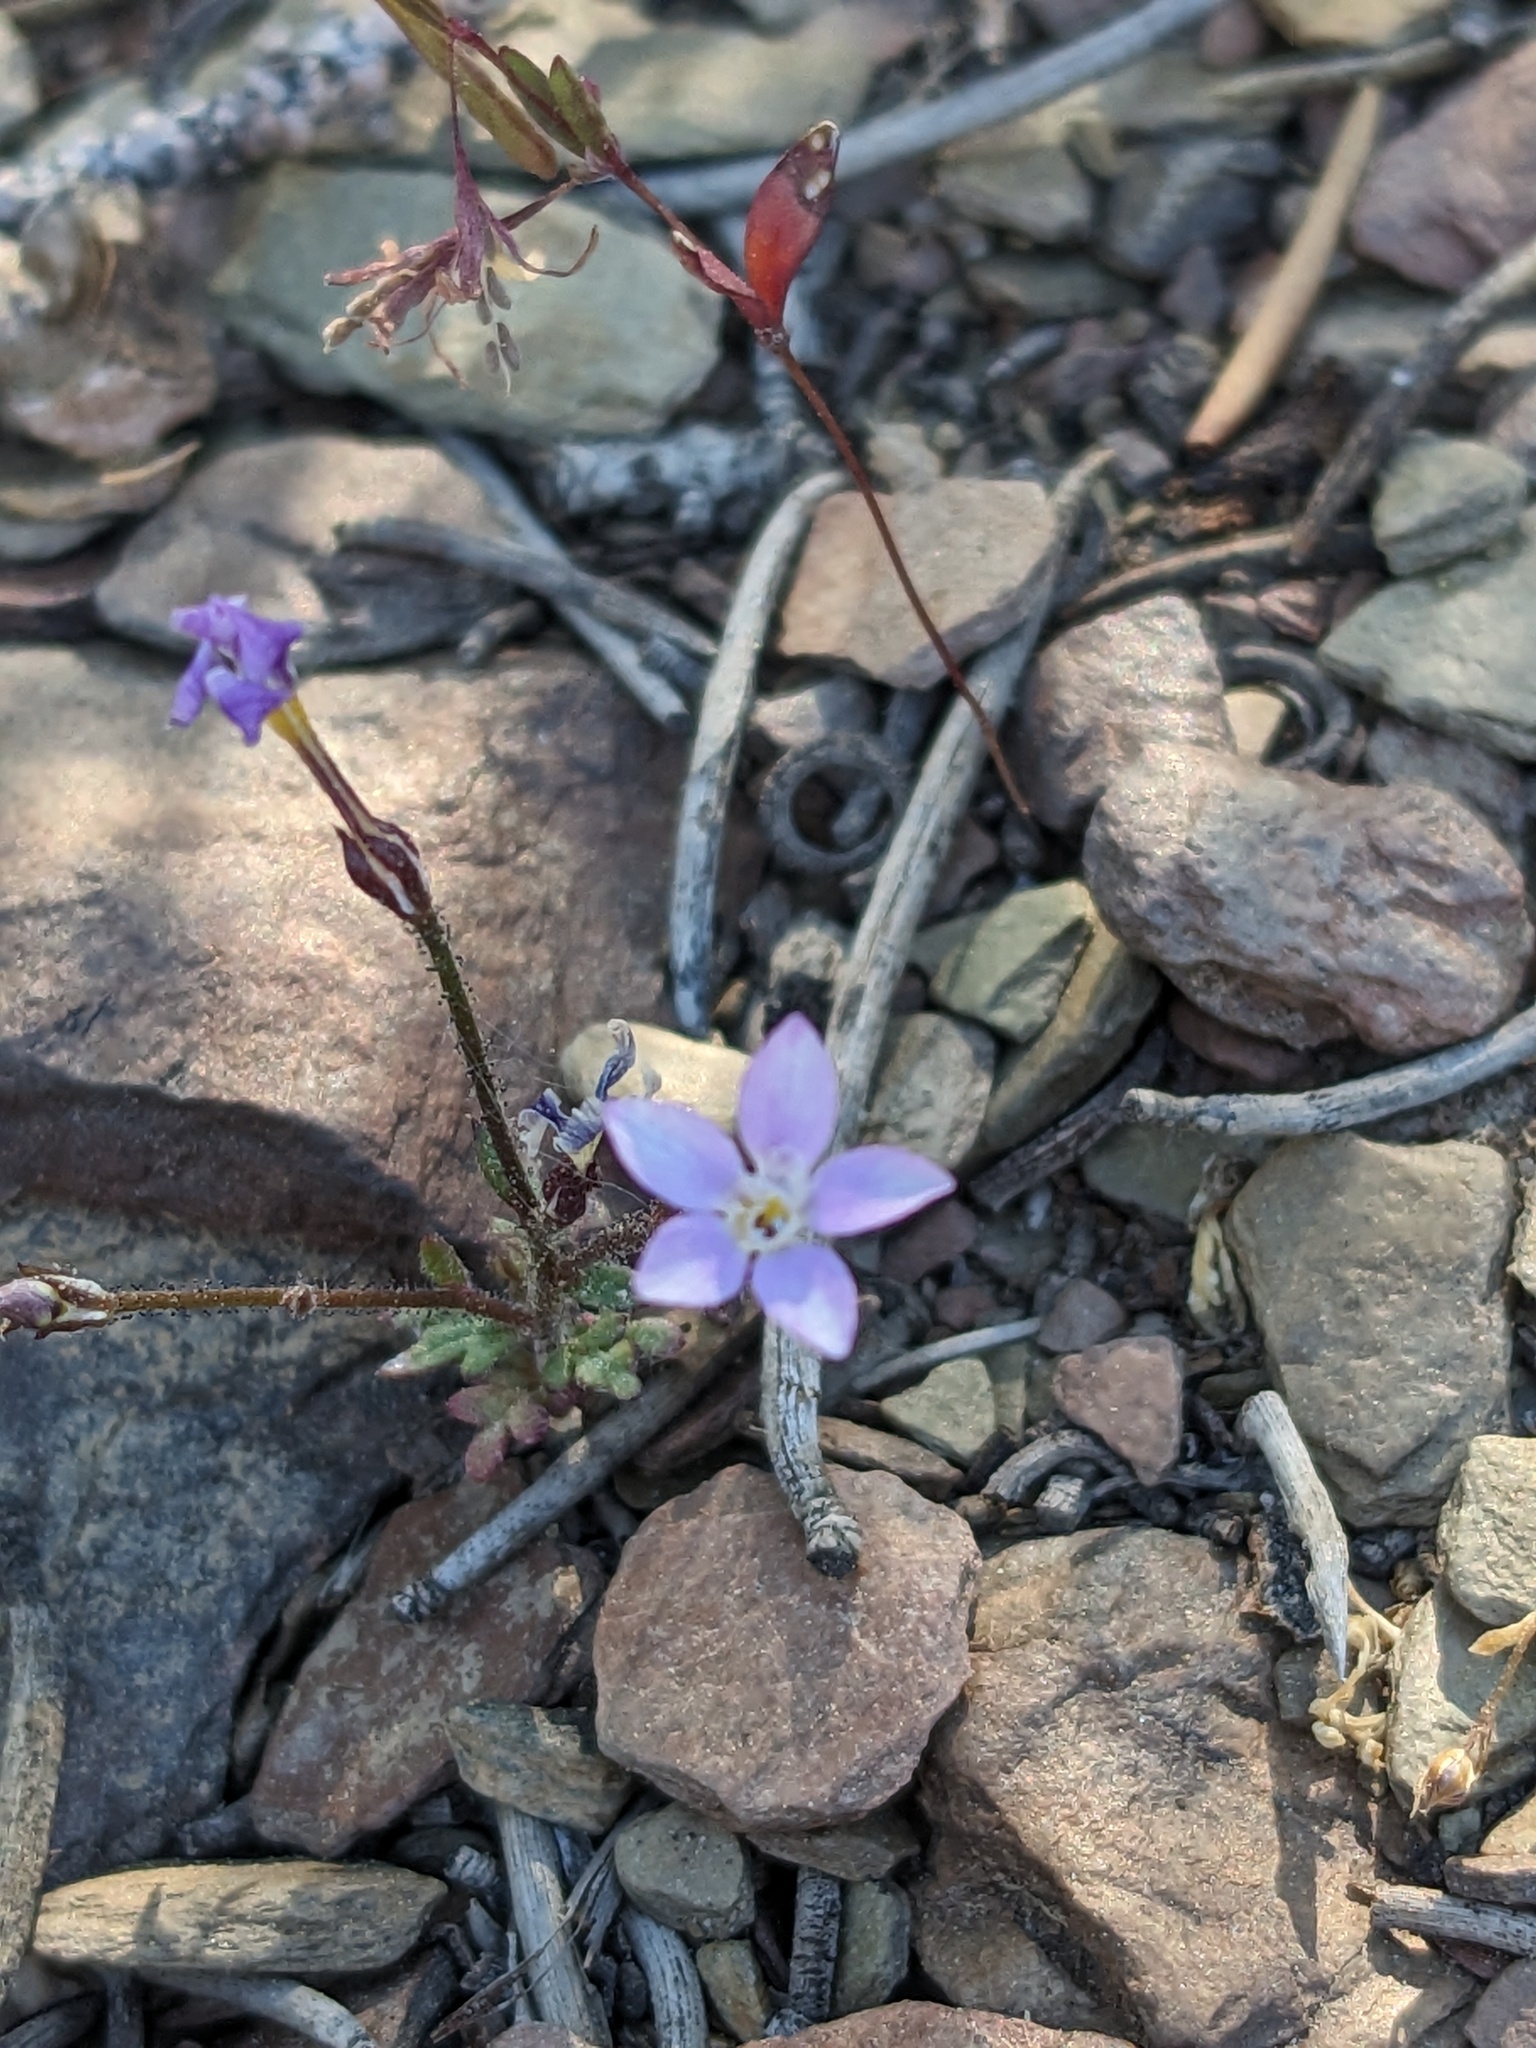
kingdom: Plantae
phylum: Tracheophyta
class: Magnoliopsida
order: Ericales
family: Polemoniaceae
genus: Gilia
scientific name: Gilia ophthalmoides
